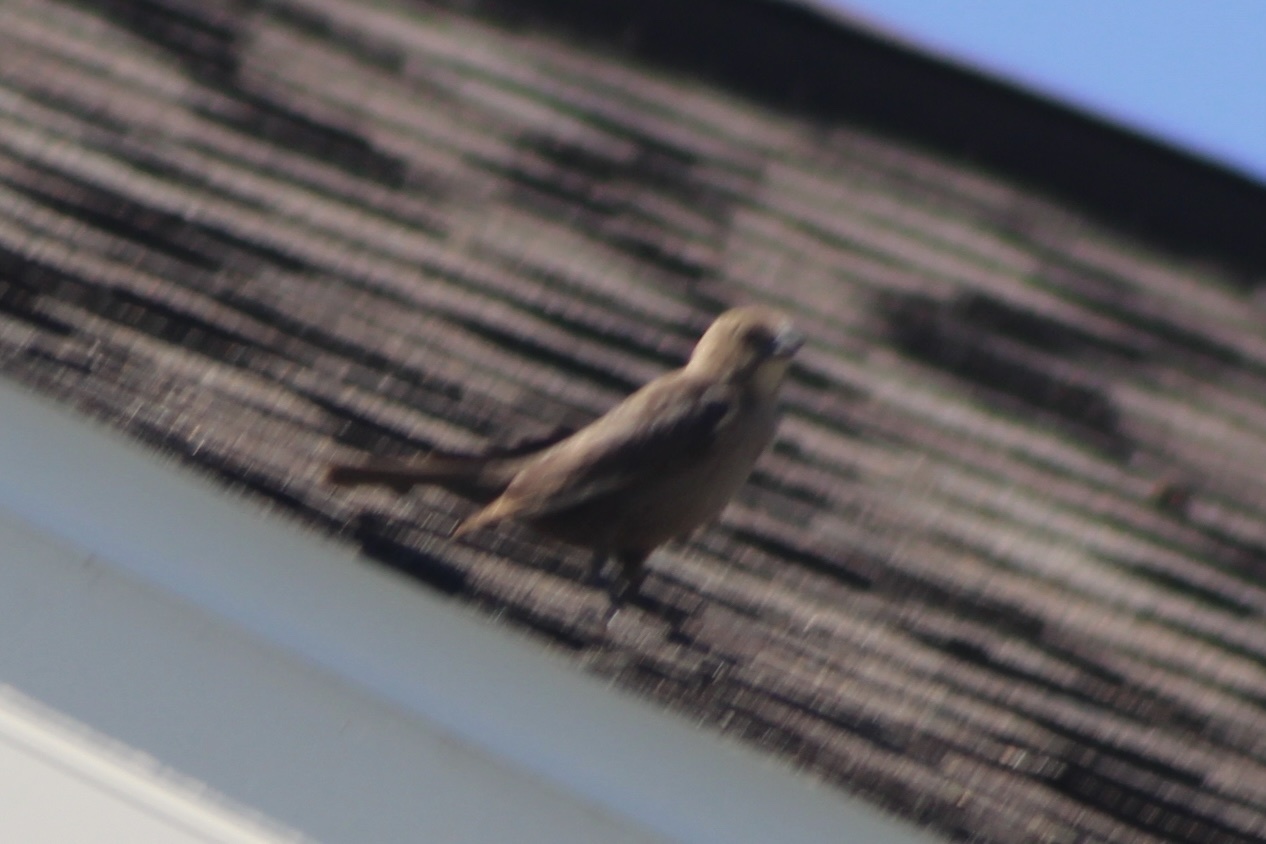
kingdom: Animalia
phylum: Chordata
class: Aves
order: Passeriformes
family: Icteridae
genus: Molothrus
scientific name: Molothrus ater
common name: Brown-headed cowbird
